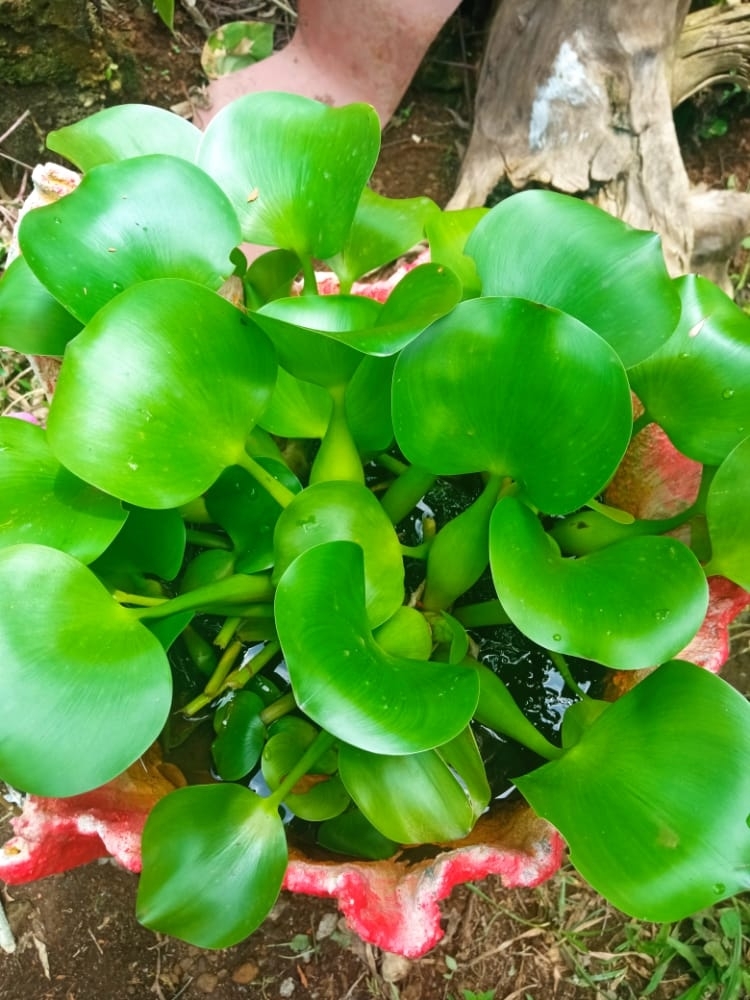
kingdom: Plantae
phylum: Tracheophyta
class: Liliopsida
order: Commelinales
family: Pontederiaceae
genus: Pontederia
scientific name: Pontederia crassipes
